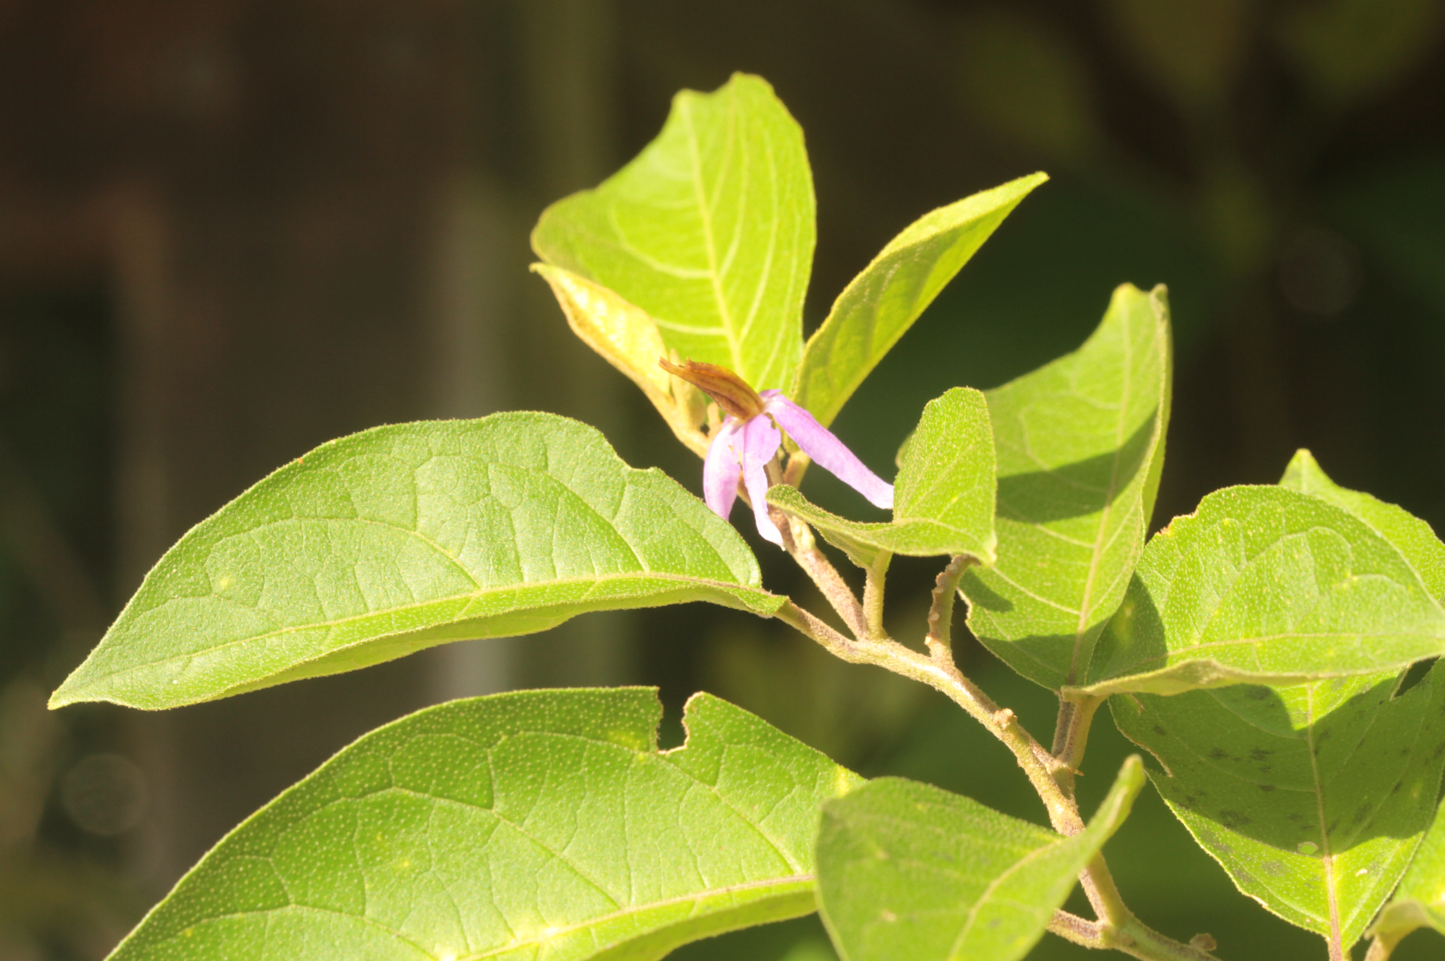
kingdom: Plantae
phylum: Tracheophyta
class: Magnoliopsida
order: Solanales
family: Solanaceae
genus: Solanum
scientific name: Solanum subinerme
